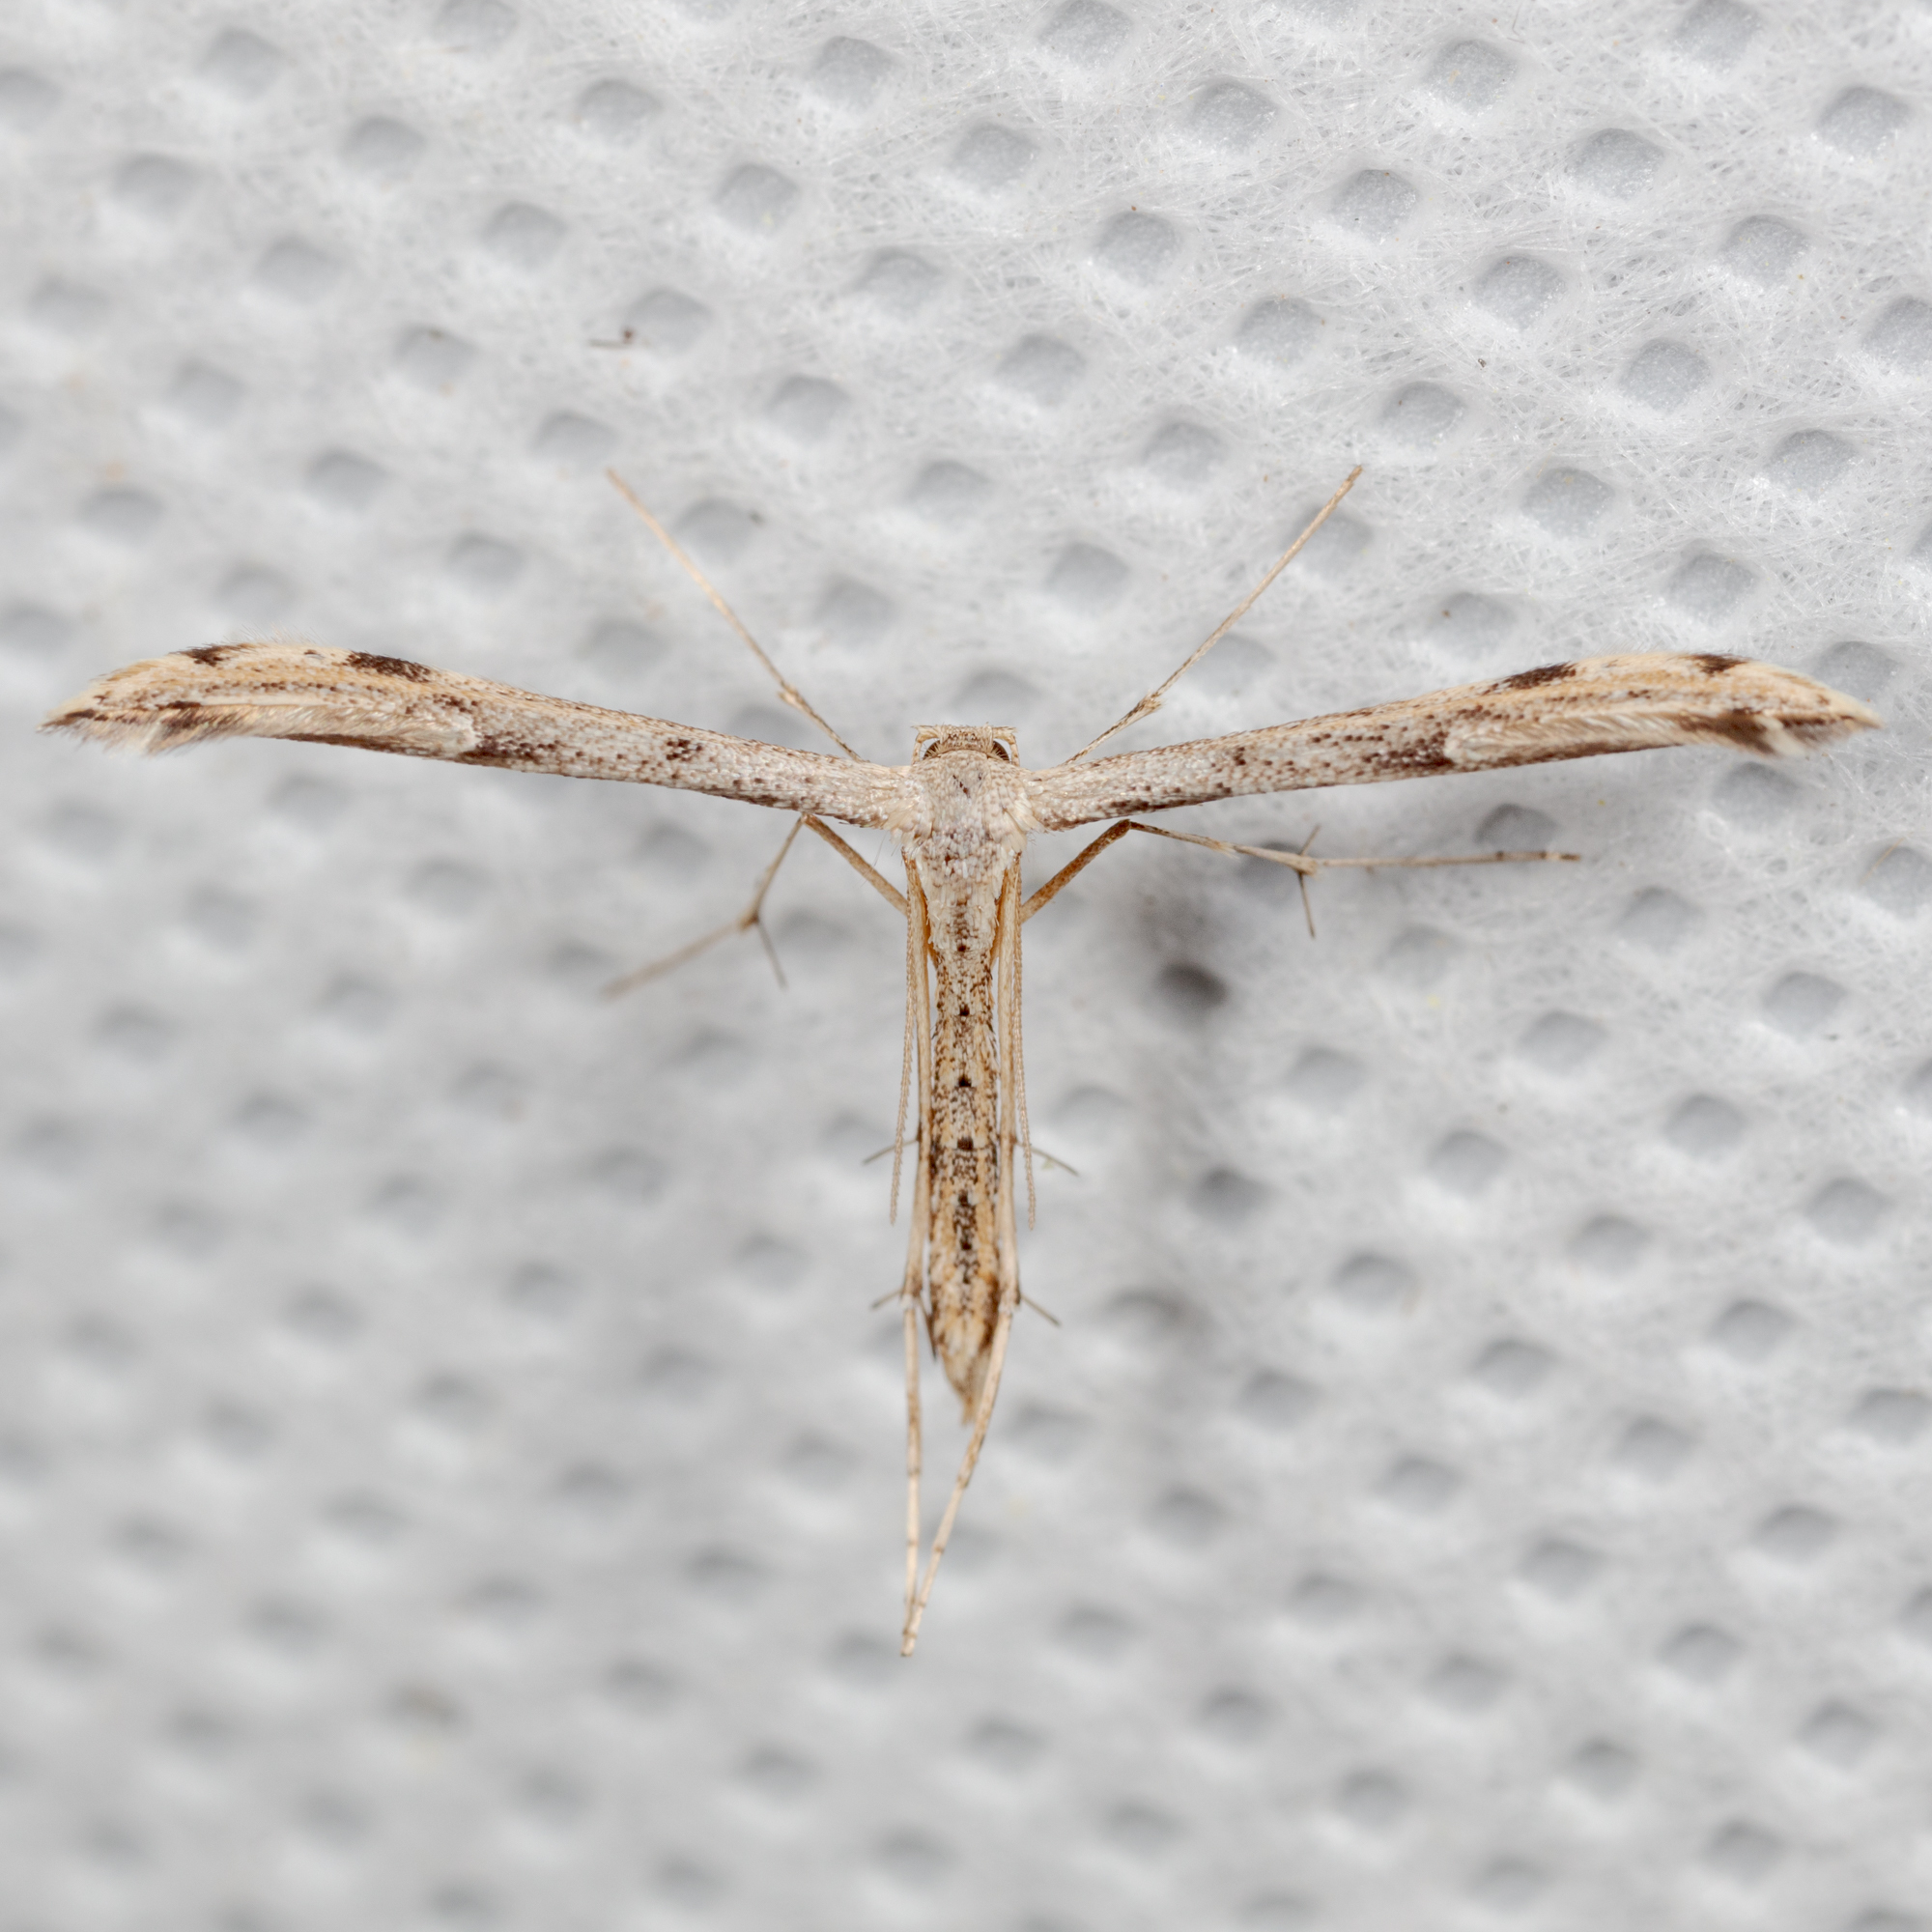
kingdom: Animalia
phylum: Arthropoda
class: Insecta
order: Lepidoptera
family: Pterophoridae
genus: Adaina
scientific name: Adaina ambrosiae
